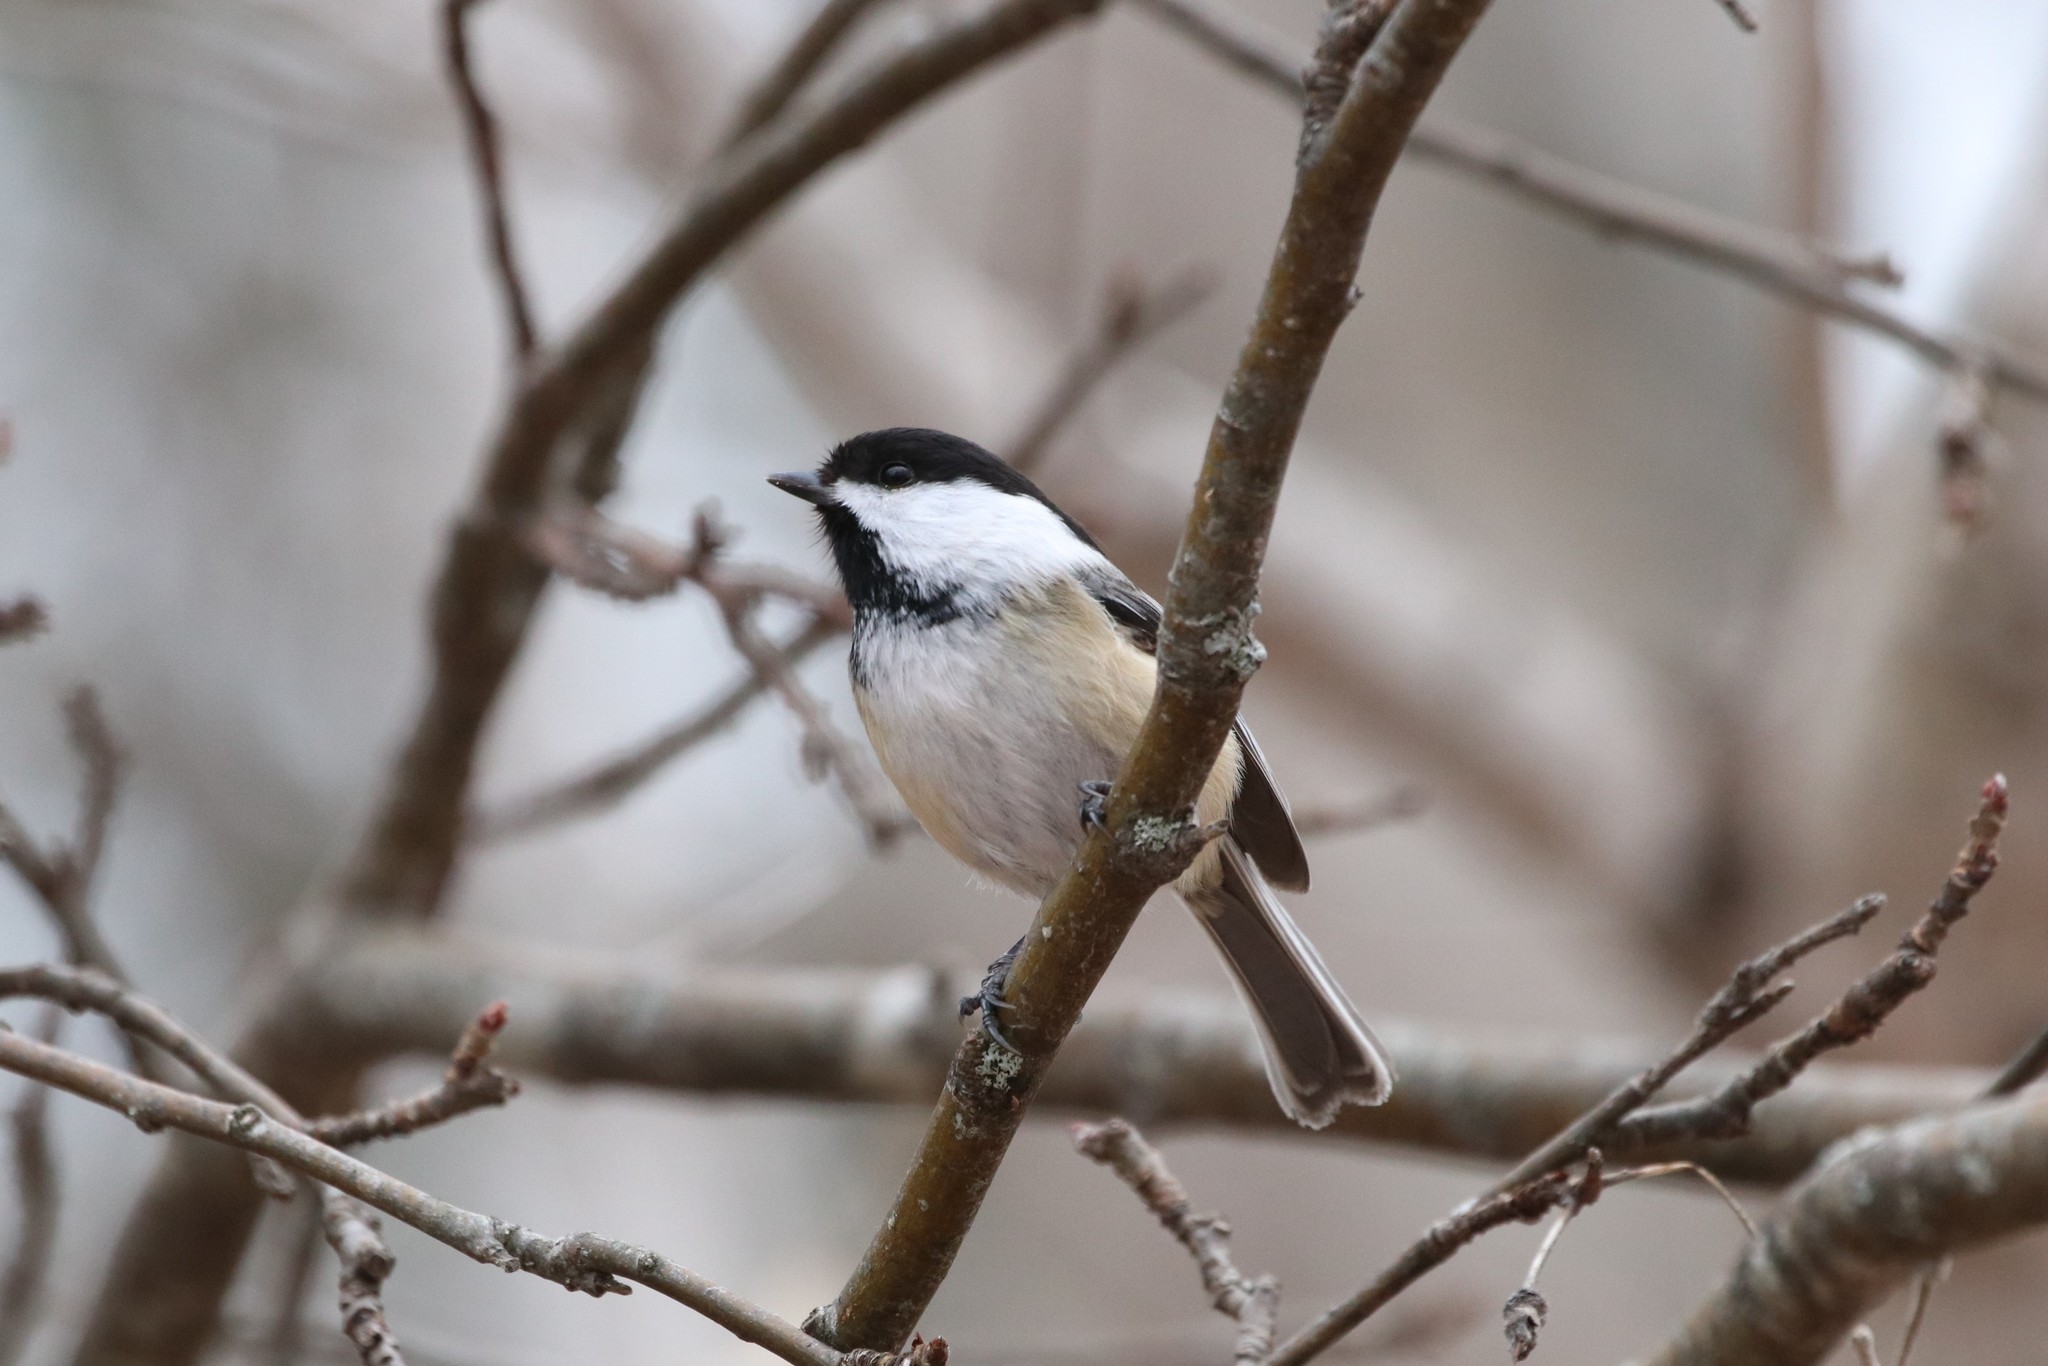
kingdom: Animalia
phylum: Chordata
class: Aves
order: Passeriformes
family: Paridae
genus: Poecile
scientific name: Poecile atricapillus
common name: Black-capped chickadee
